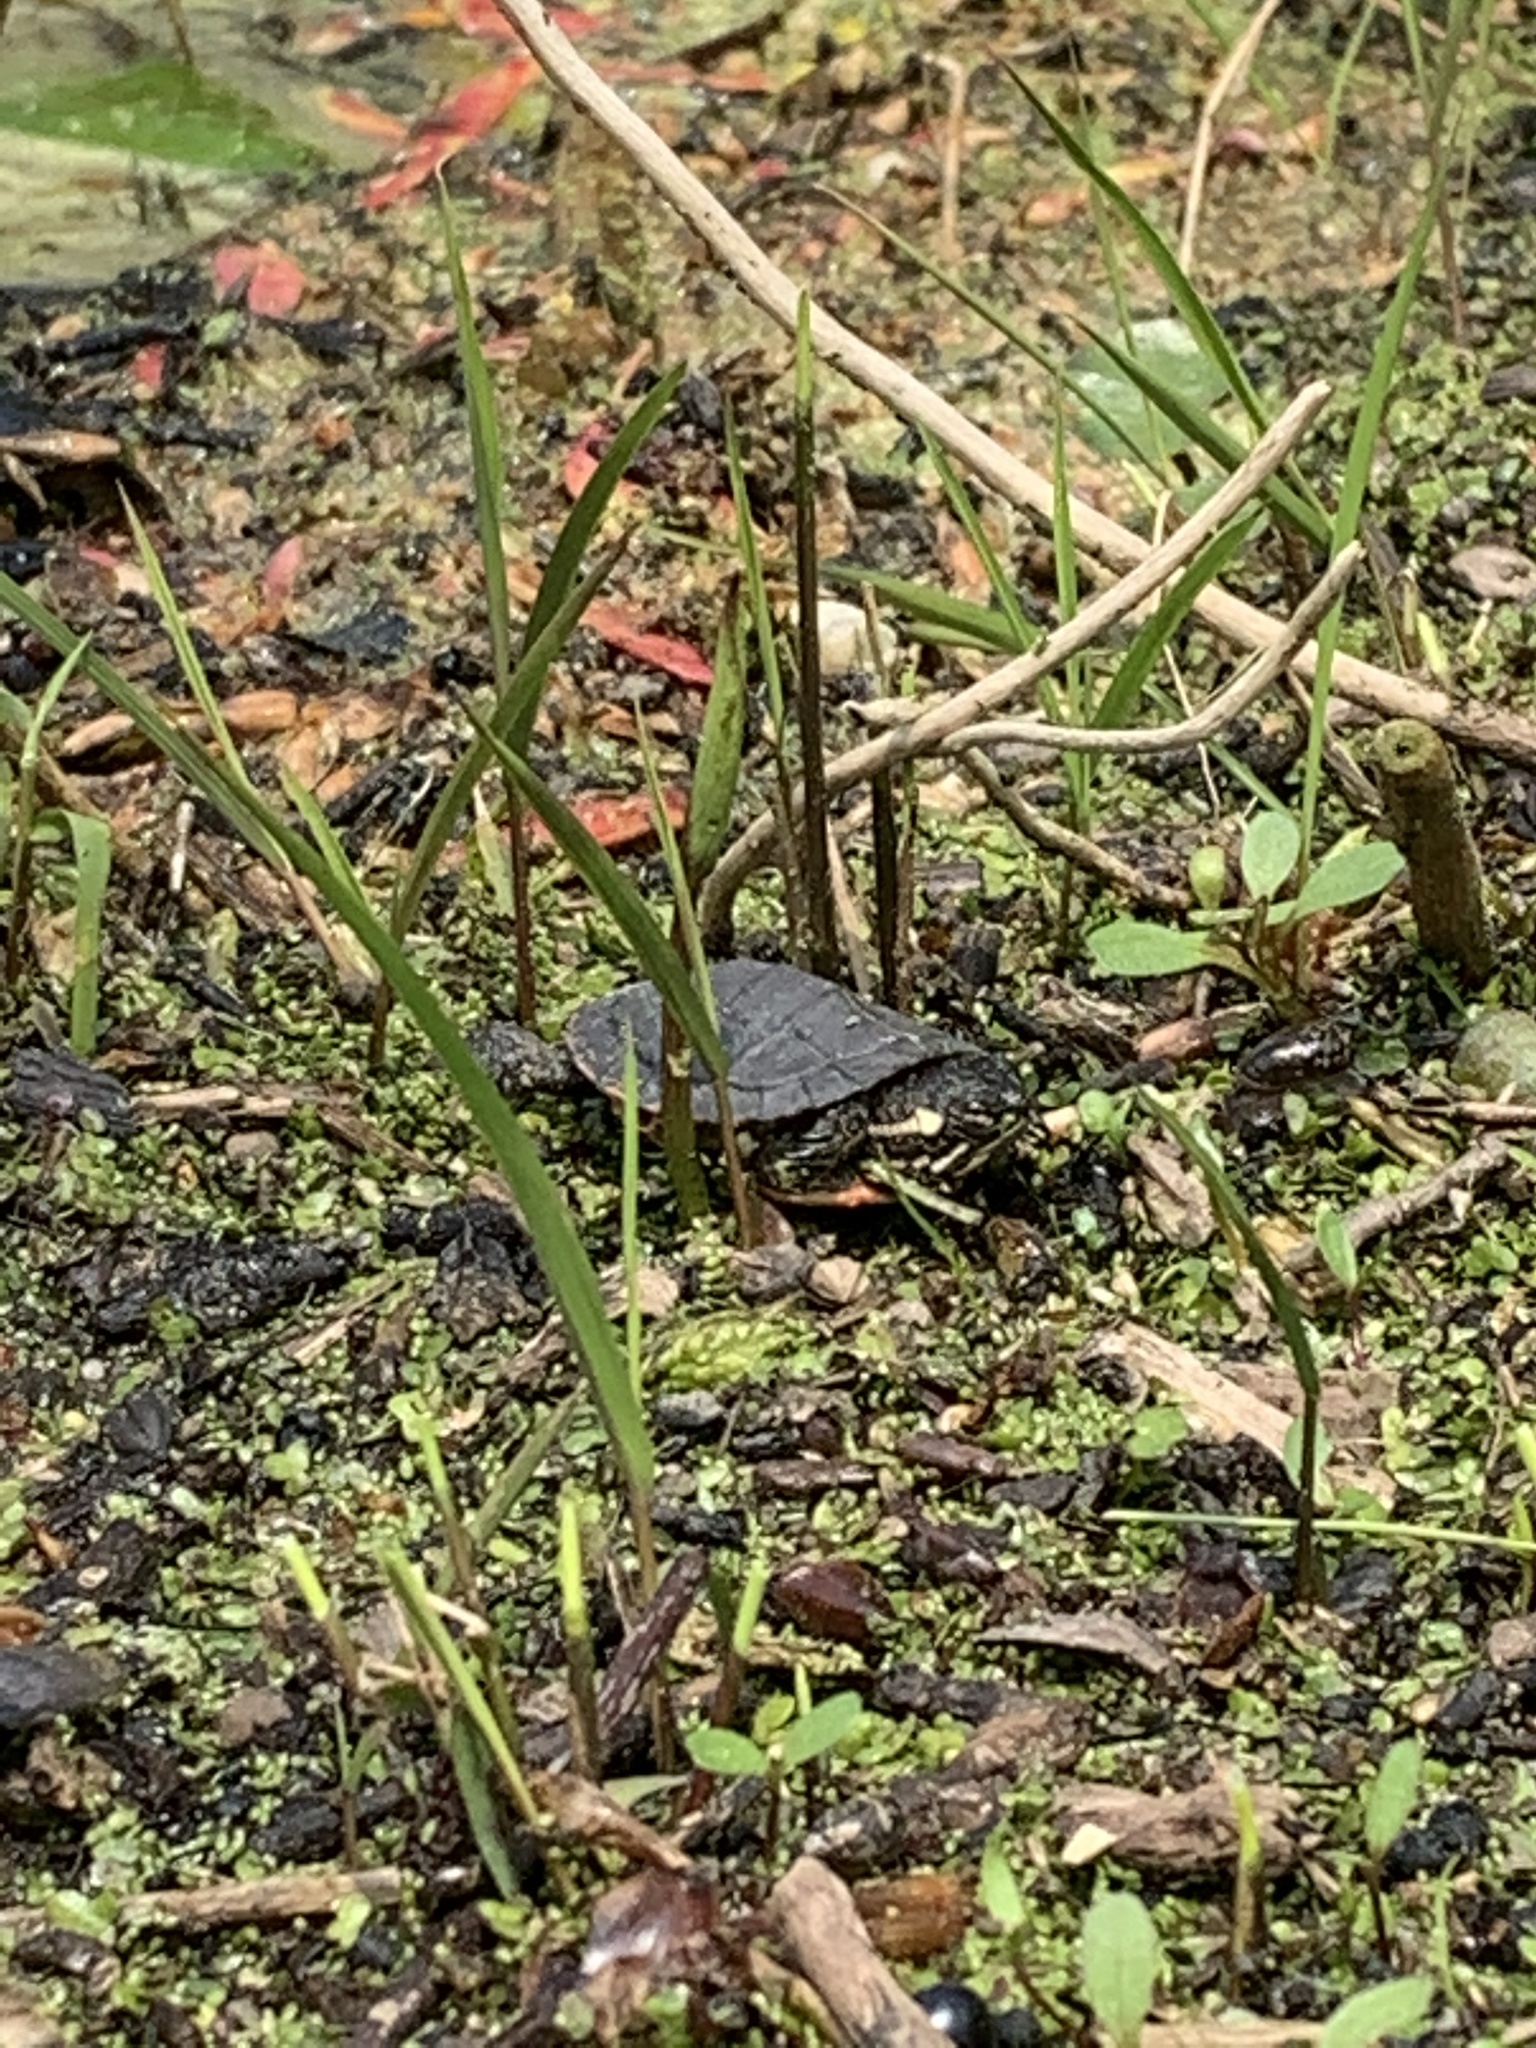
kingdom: Animalia
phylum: Chordata
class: Testudines
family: Emydidae
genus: Chrysemys
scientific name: Chrysemys picta
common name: Painted turtle
